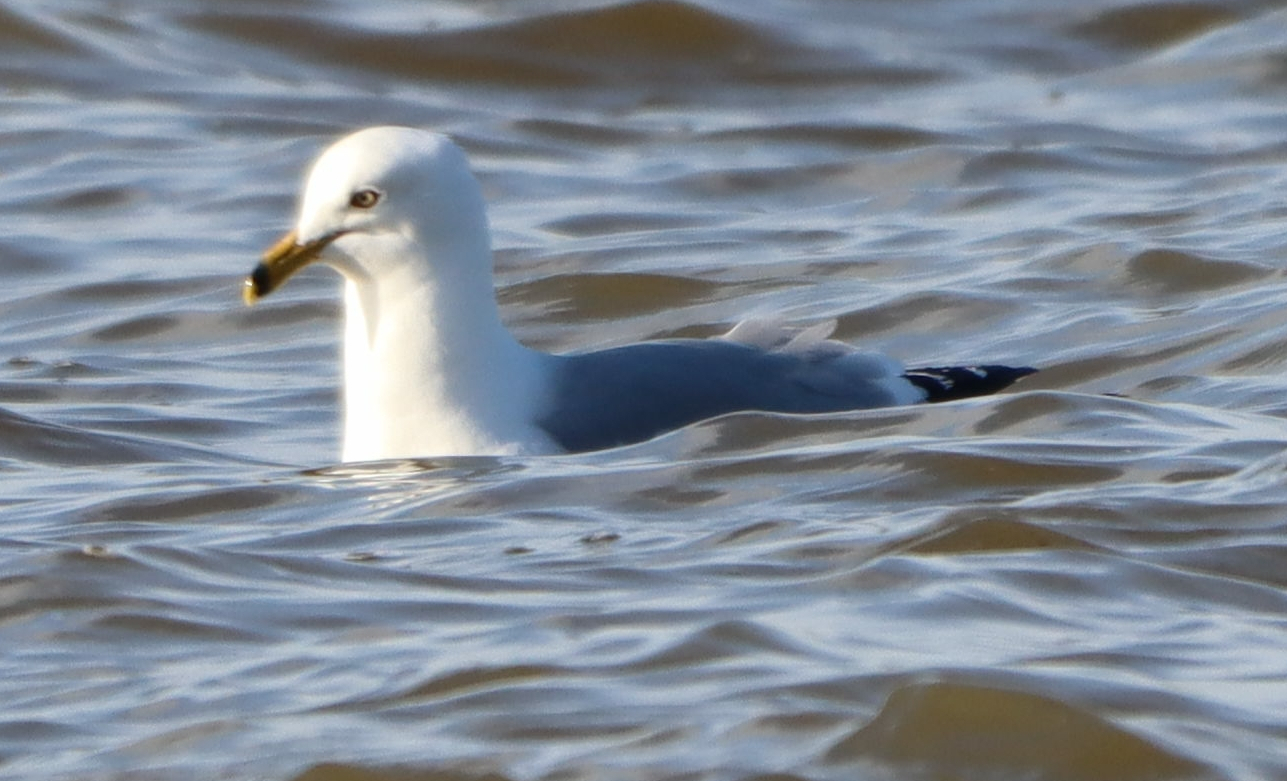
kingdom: Animalia
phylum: Chordata
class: Aves
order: Charadriiformes
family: Laridae
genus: Larus
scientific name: Larus delawarensis
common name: Ring-billed gull
